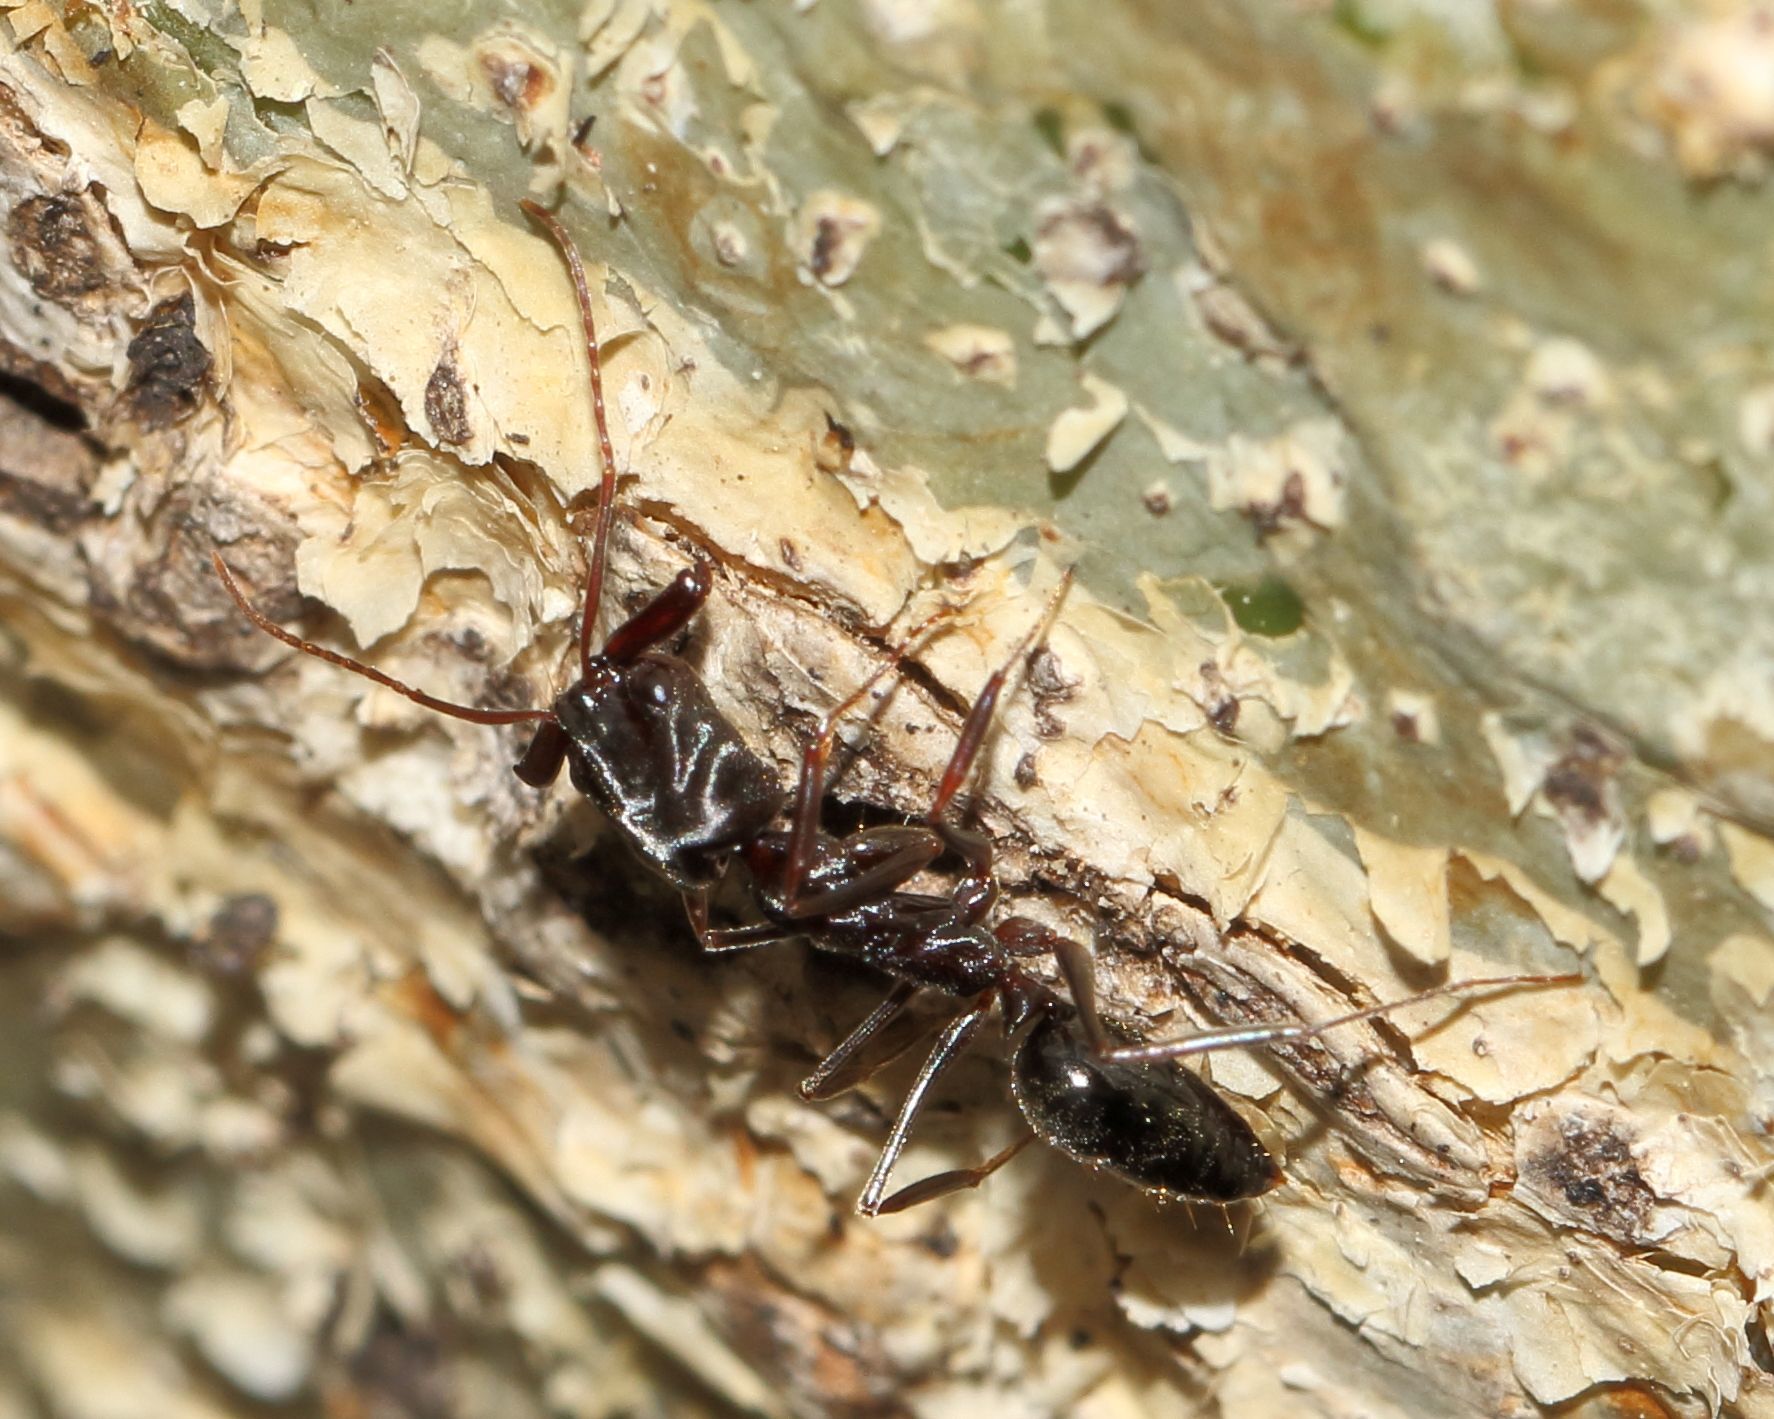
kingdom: Animalia
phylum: Arthropoda
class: Insecta
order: Hymenoptera
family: Formicidae
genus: Odontomachus
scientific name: Odontomachus troglodytes
